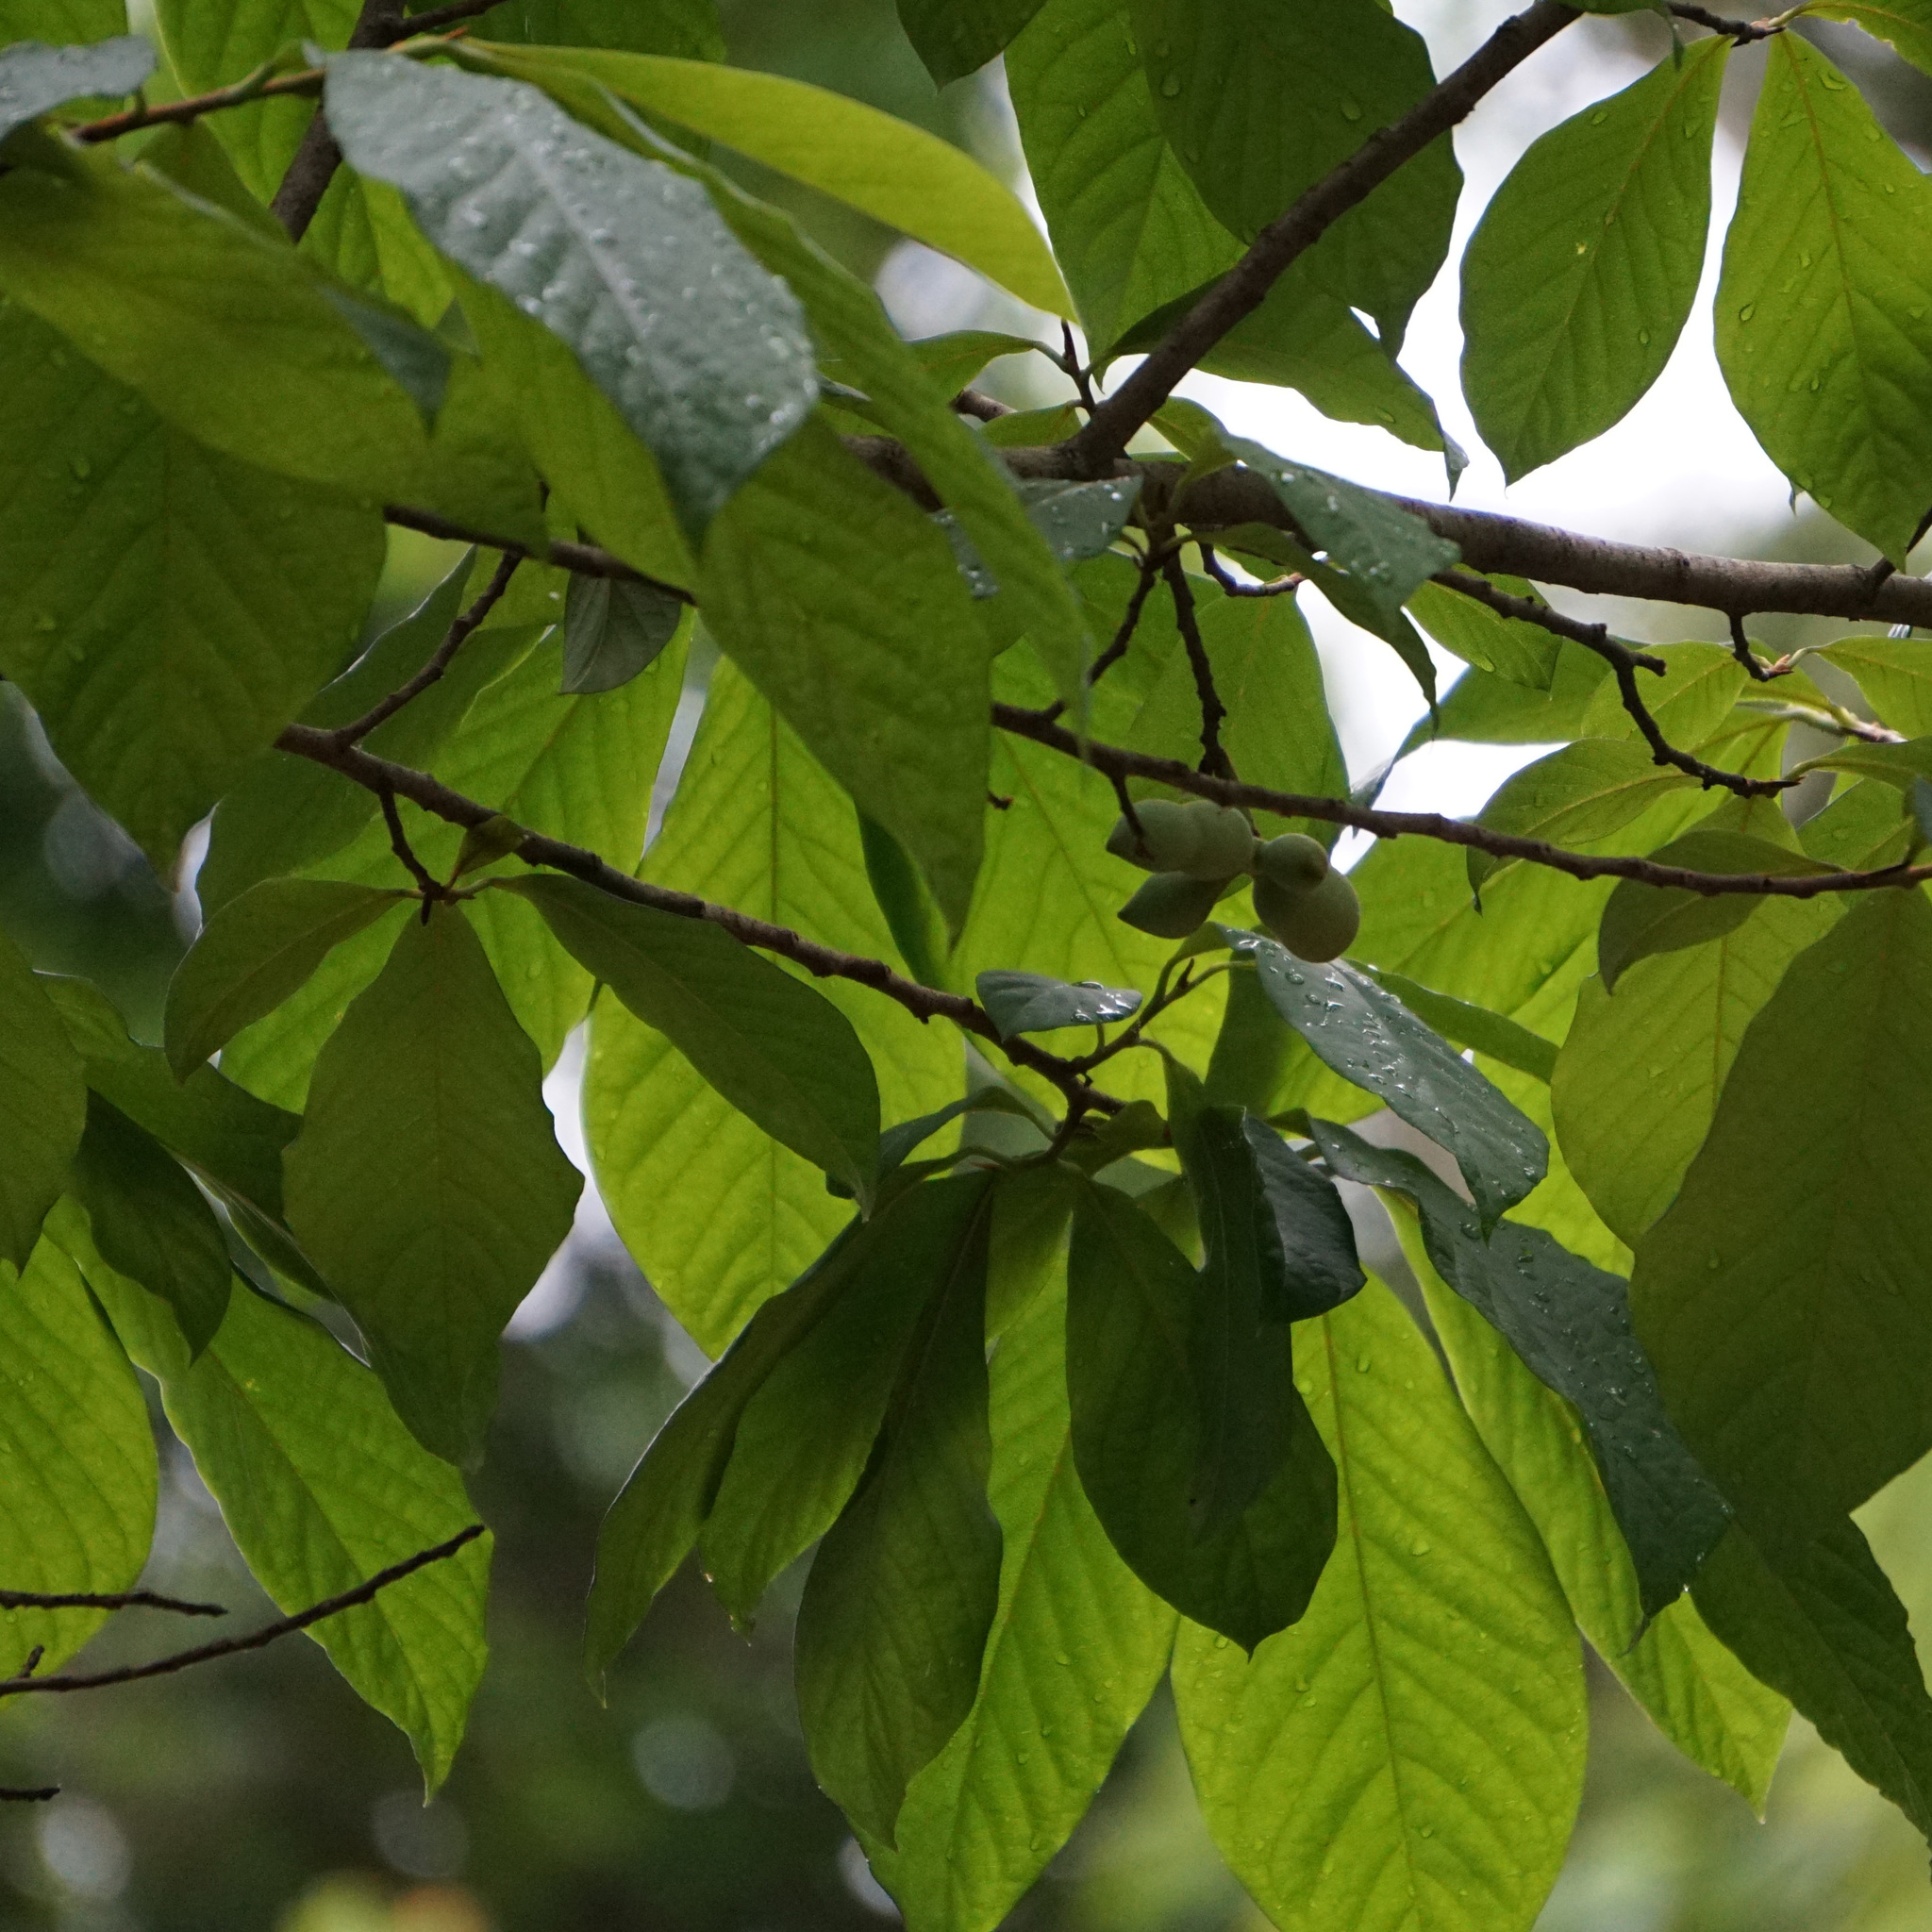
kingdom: Plantae
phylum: Tracheophyta
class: Magnoliopsida
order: Magnoliales
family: Annonaceae
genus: Asimina
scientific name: Asimina triloba
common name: Dog-banana
